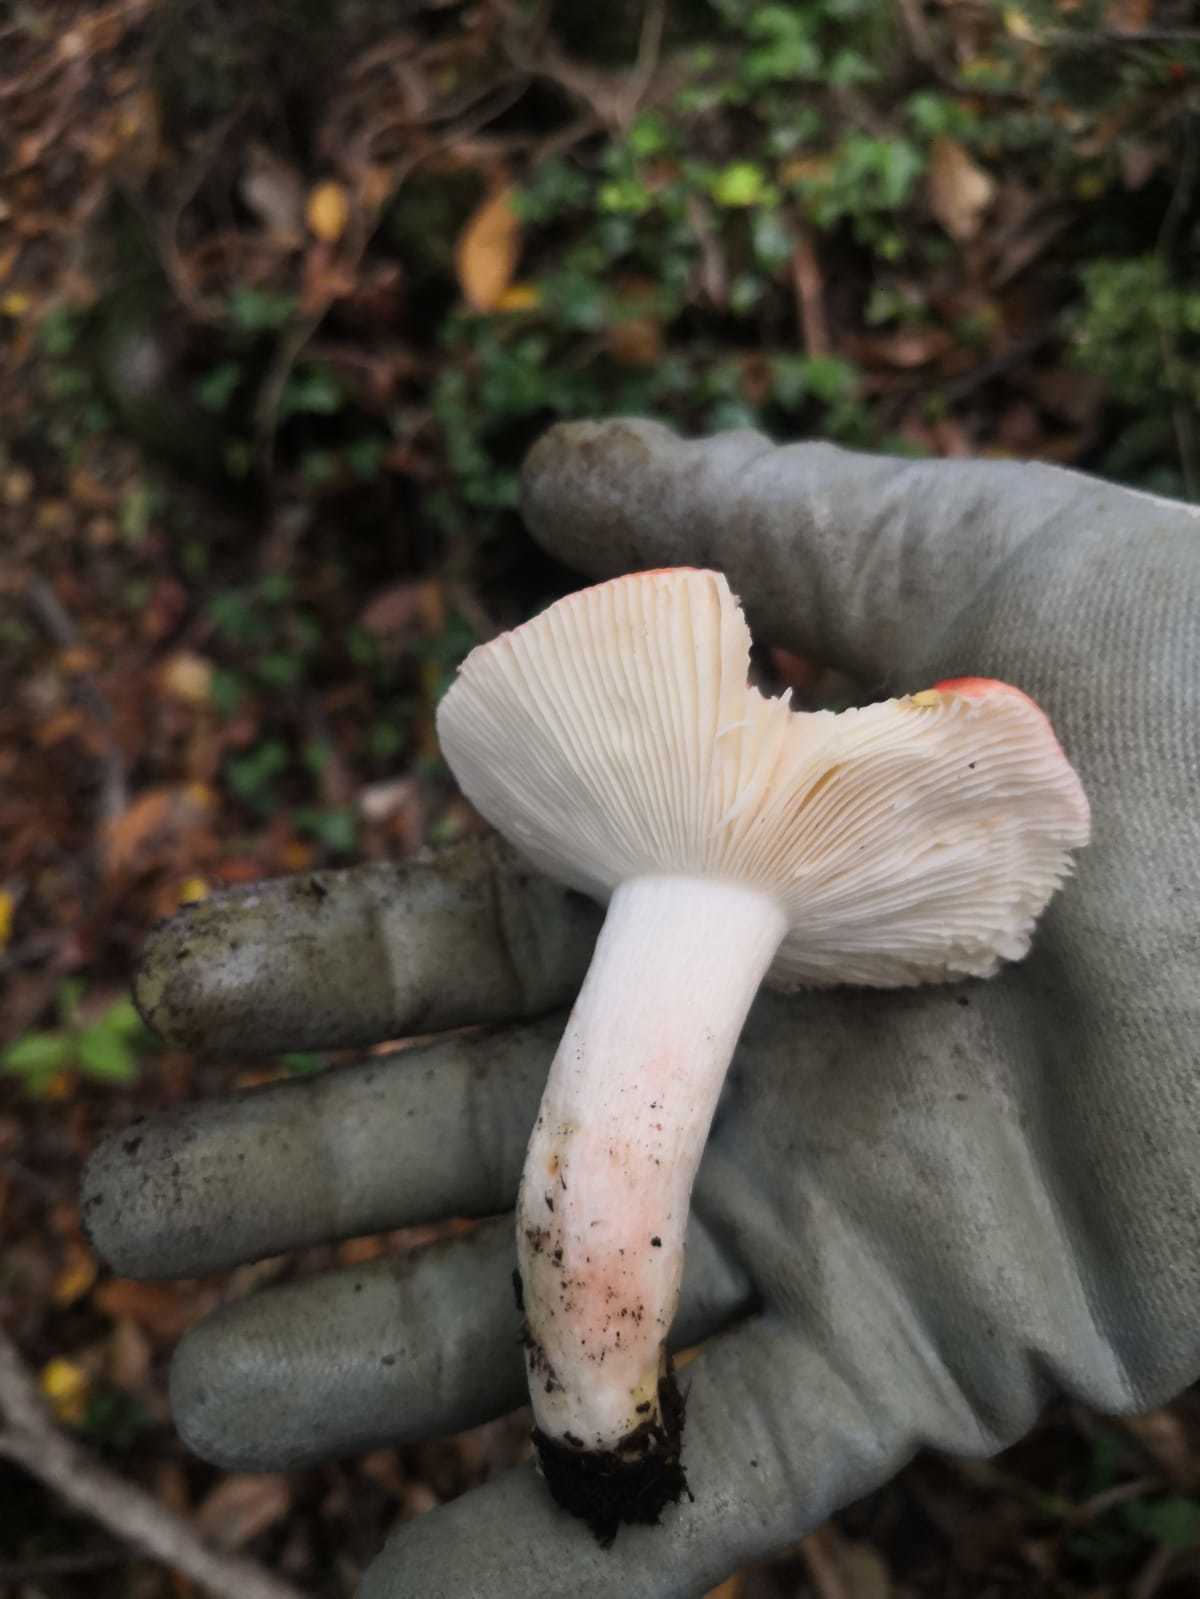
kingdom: Fungi
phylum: Basidiomycota
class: Agaricomycetes
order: Russulales
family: Russulaceae
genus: Russula
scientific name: Russula persicina
